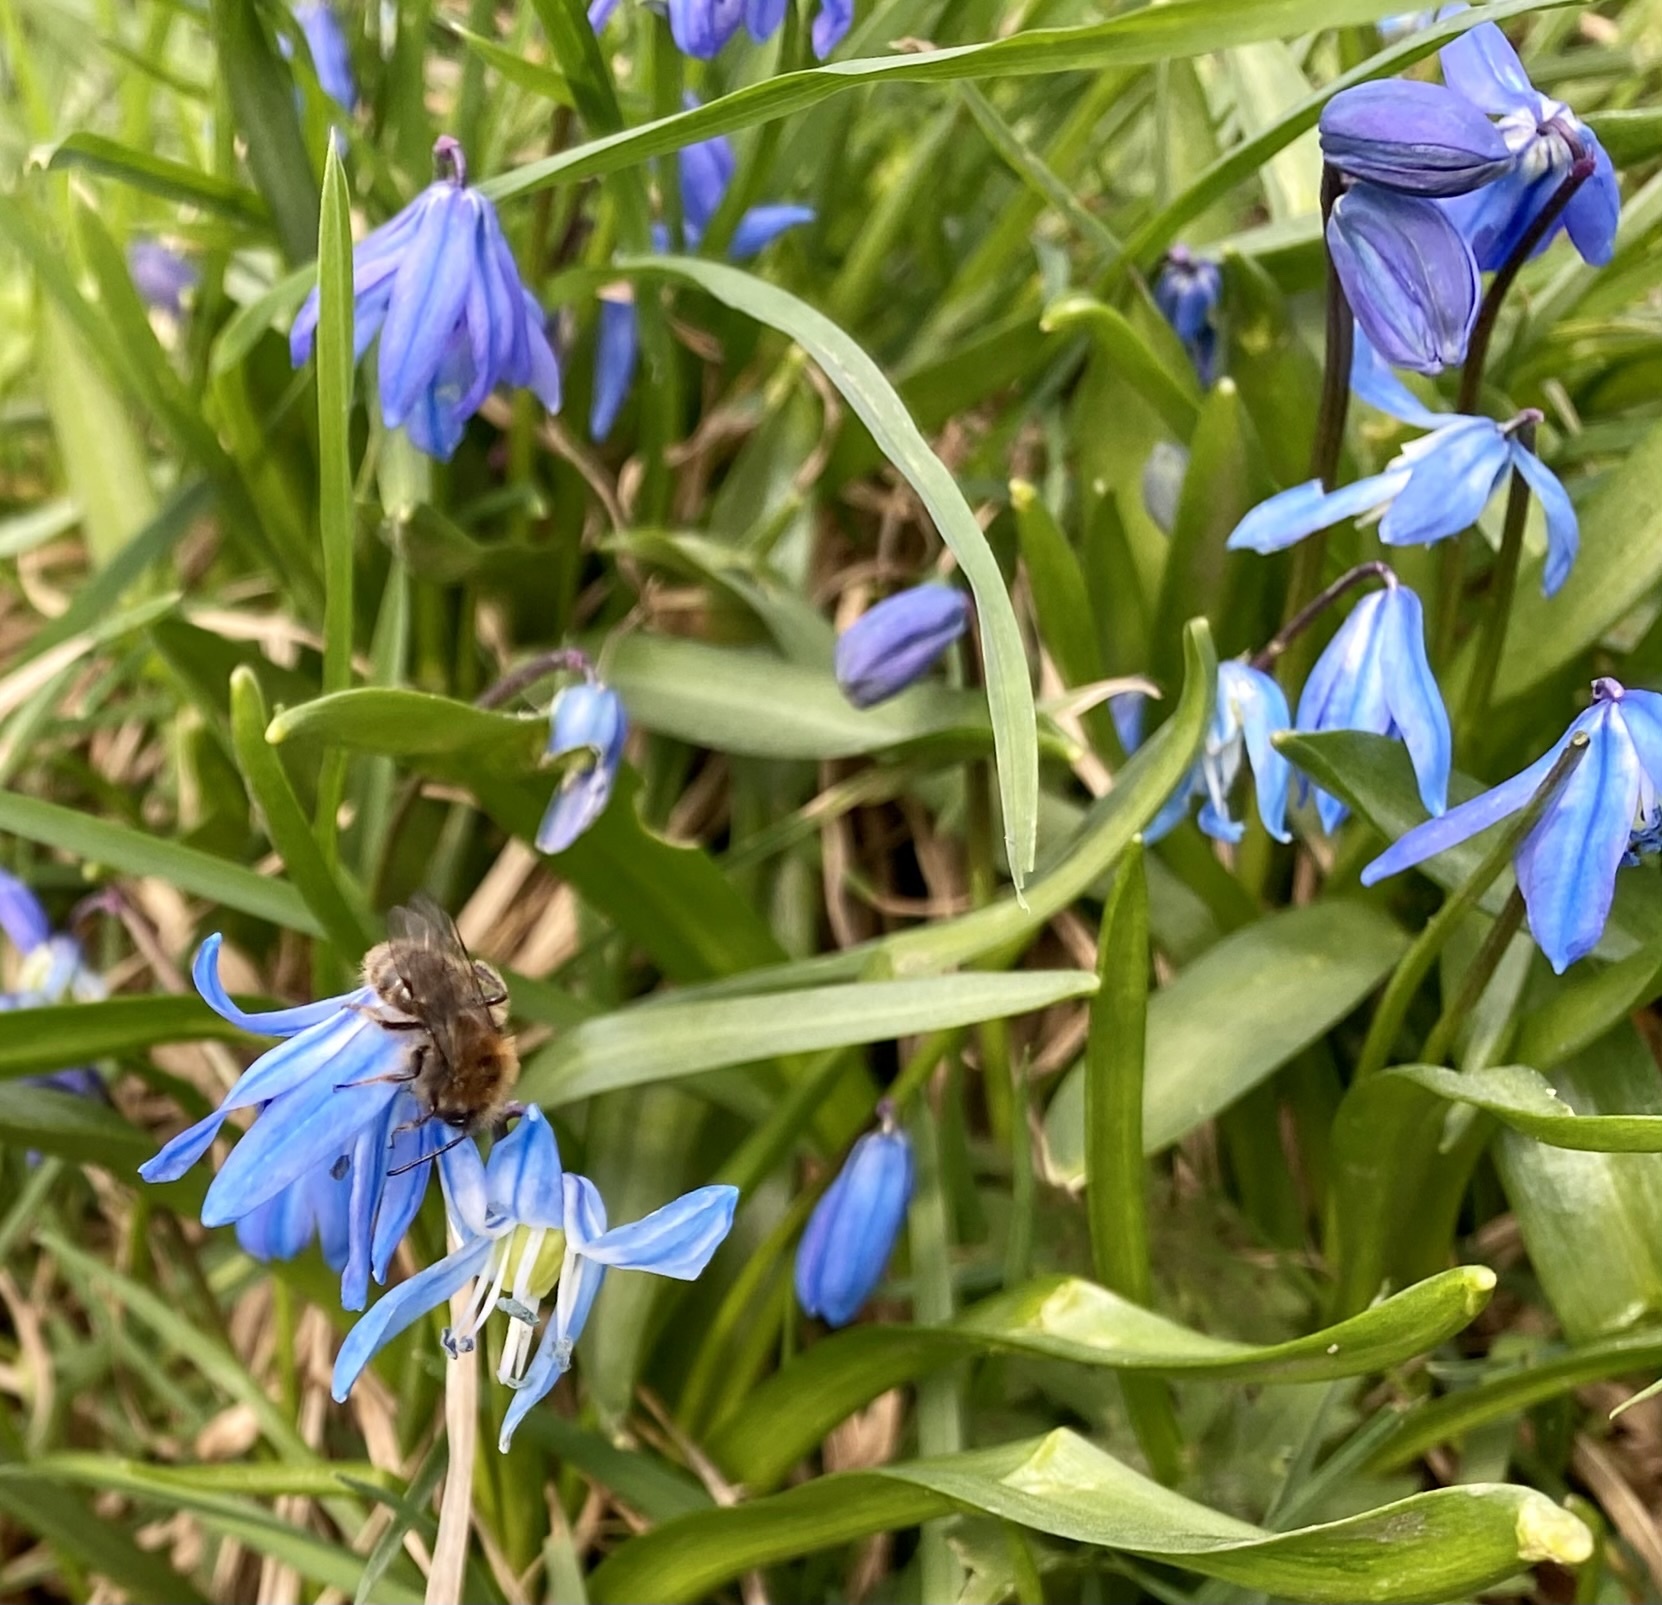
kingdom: Plantae
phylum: Tracheophyta
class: Liliopsida
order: Asparagales
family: Asparagaceae
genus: Scilla
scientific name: Scilla siberica
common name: Siberian squill
